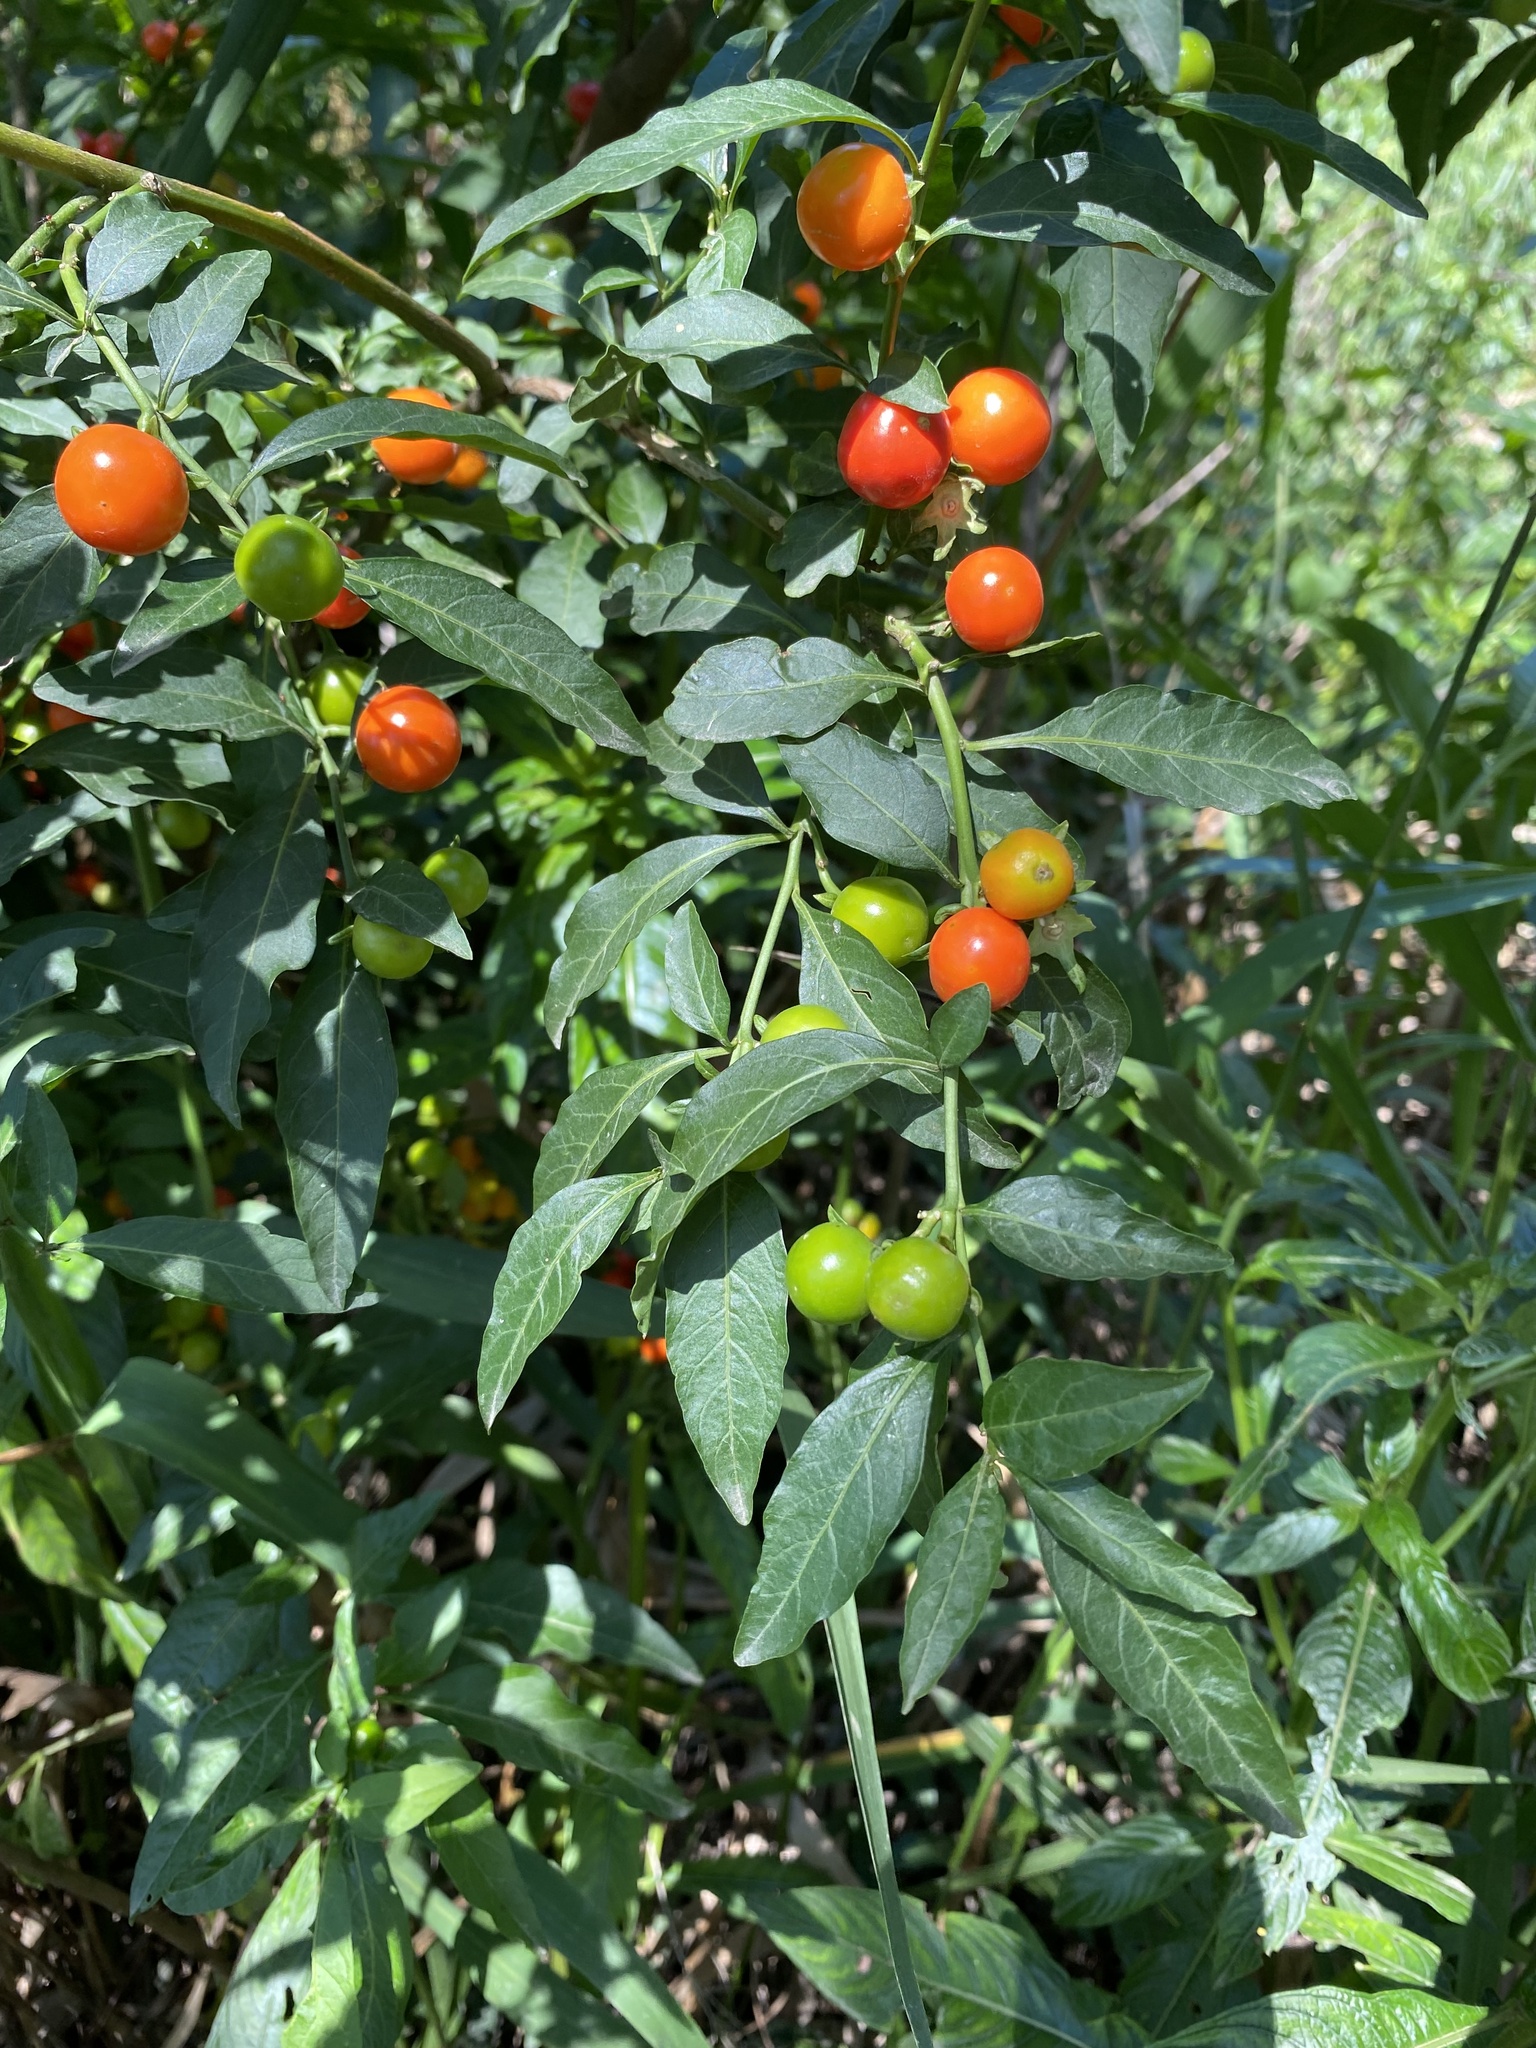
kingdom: Plantae
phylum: Tracheophyta
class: Magnoliopsida
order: Solanales
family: Solanaceae
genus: Solanum
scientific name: Solanum pseudocapsicum
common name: Jerusalem cherry
